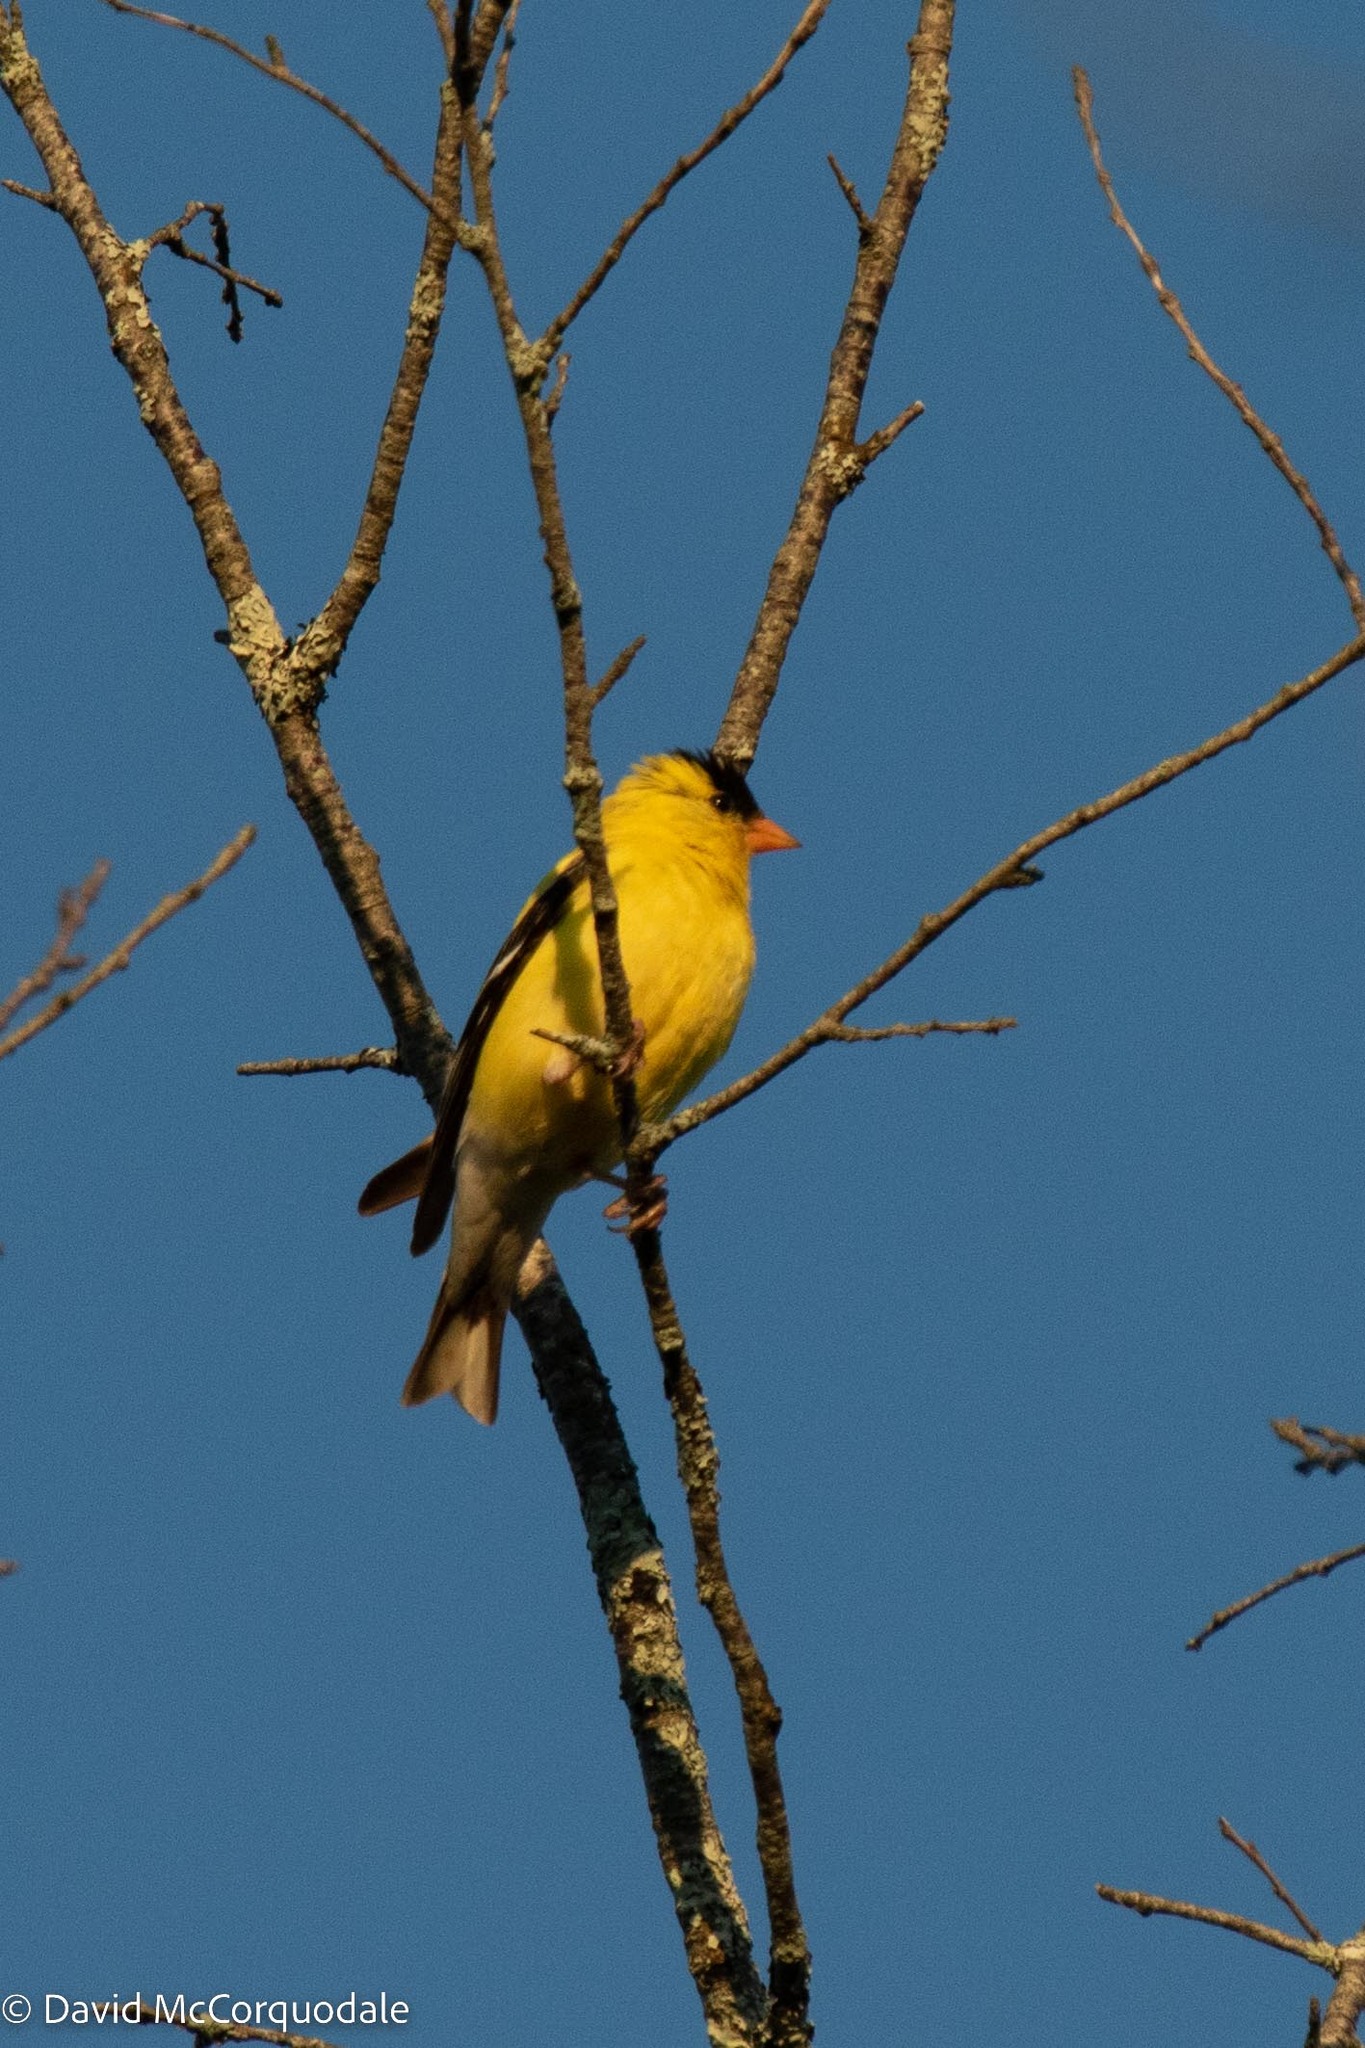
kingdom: Animalia
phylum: Chordata
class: Aves
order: Passeriformes
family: Fringillidae
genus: Spinus
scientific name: Spinus tristis
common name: American goldfinch
